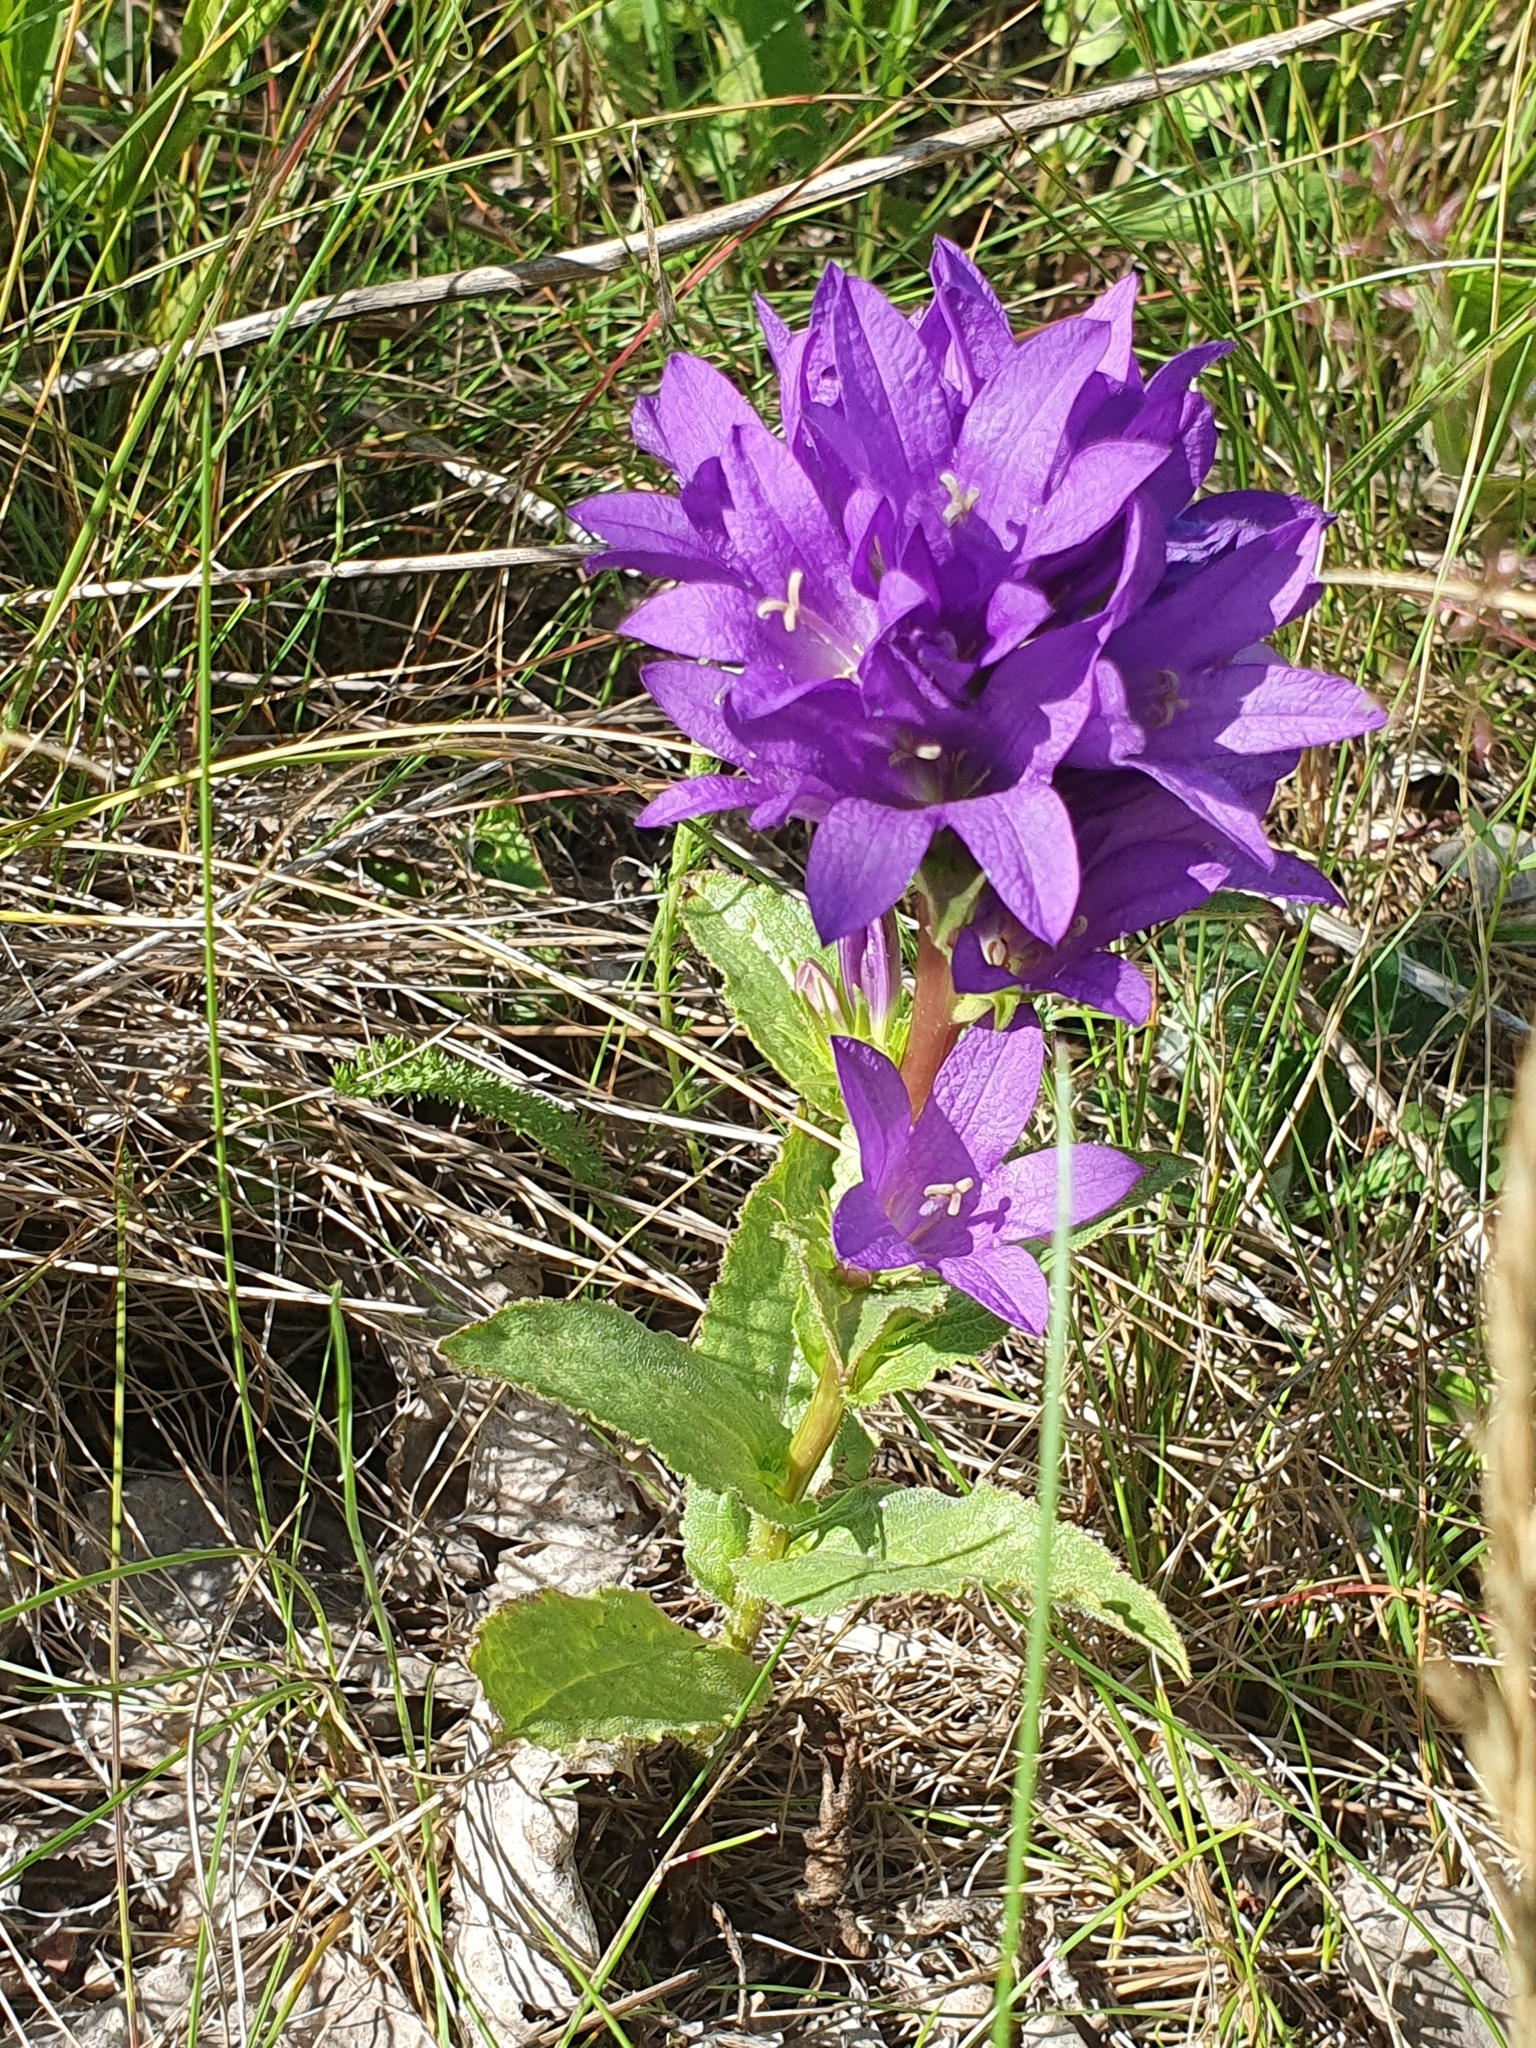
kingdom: Plantae
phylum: Tracheophyta
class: Magnoliopsida
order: Asterales
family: Campanulaceae
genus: Campanula
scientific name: Campanula glomerata
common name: Clustered bellflower
